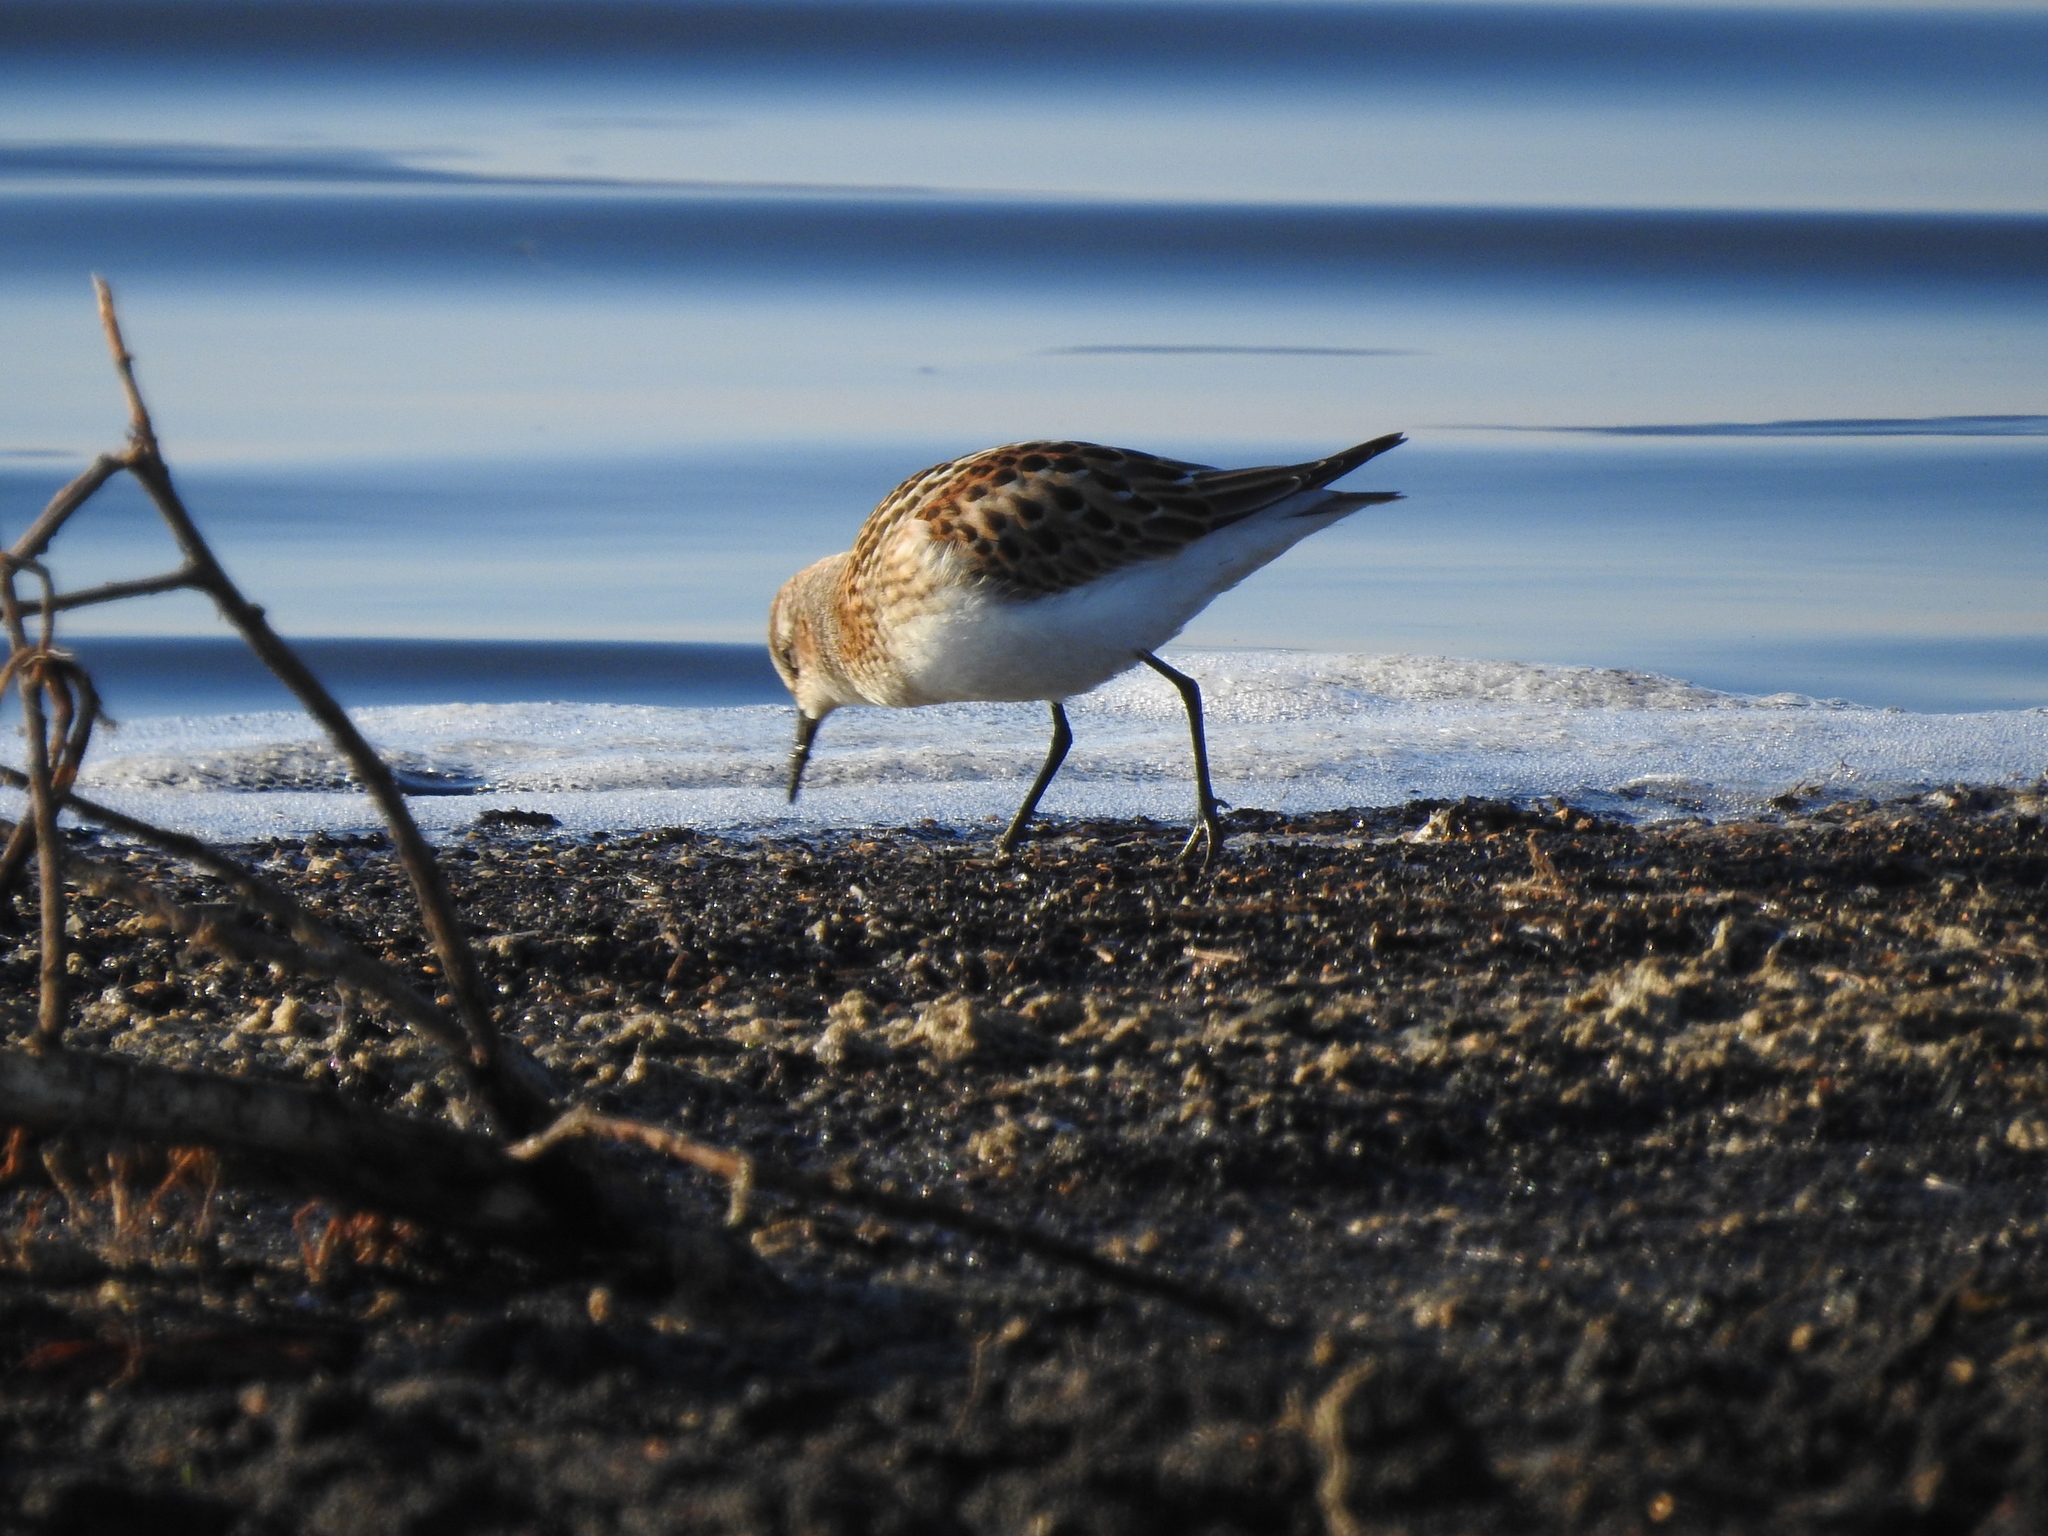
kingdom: Animalia
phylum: Chordata
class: Aves
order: Charadriiformes
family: Scolopacidae
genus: Calidris
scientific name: Calidris minuta
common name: Little stint
